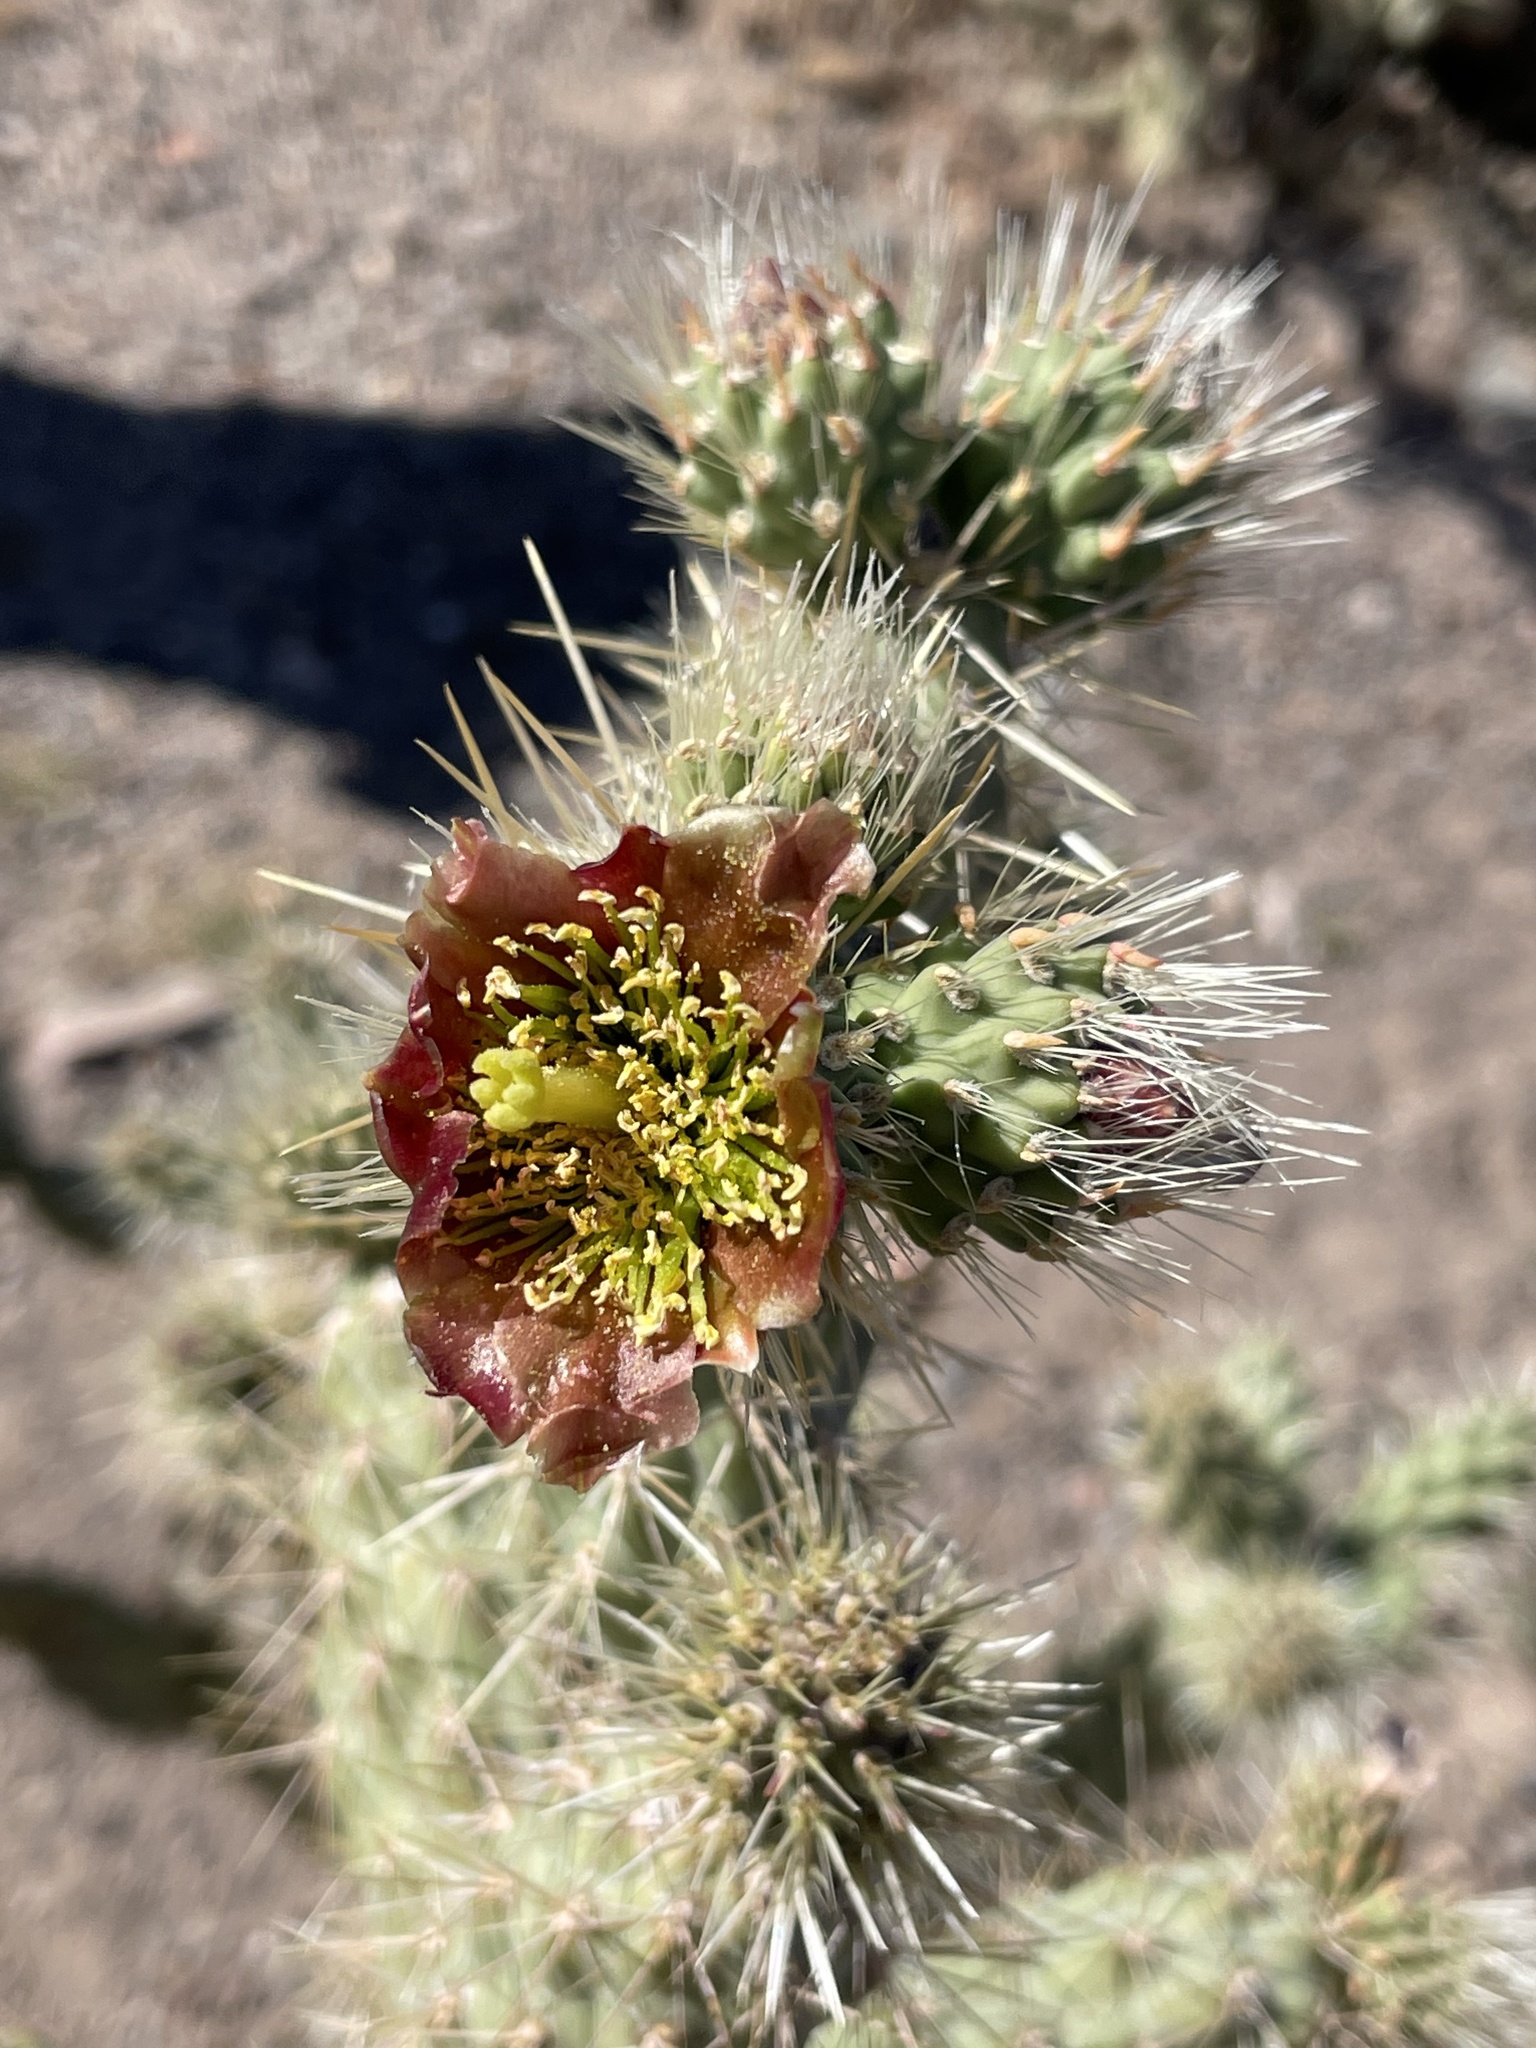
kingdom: Plantae
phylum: Tracheophyta
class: Magnoliopsida
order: Caryophyllales
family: Cactaceae
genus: Cylindropuntia
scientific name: Cylindropuntia alcahes
